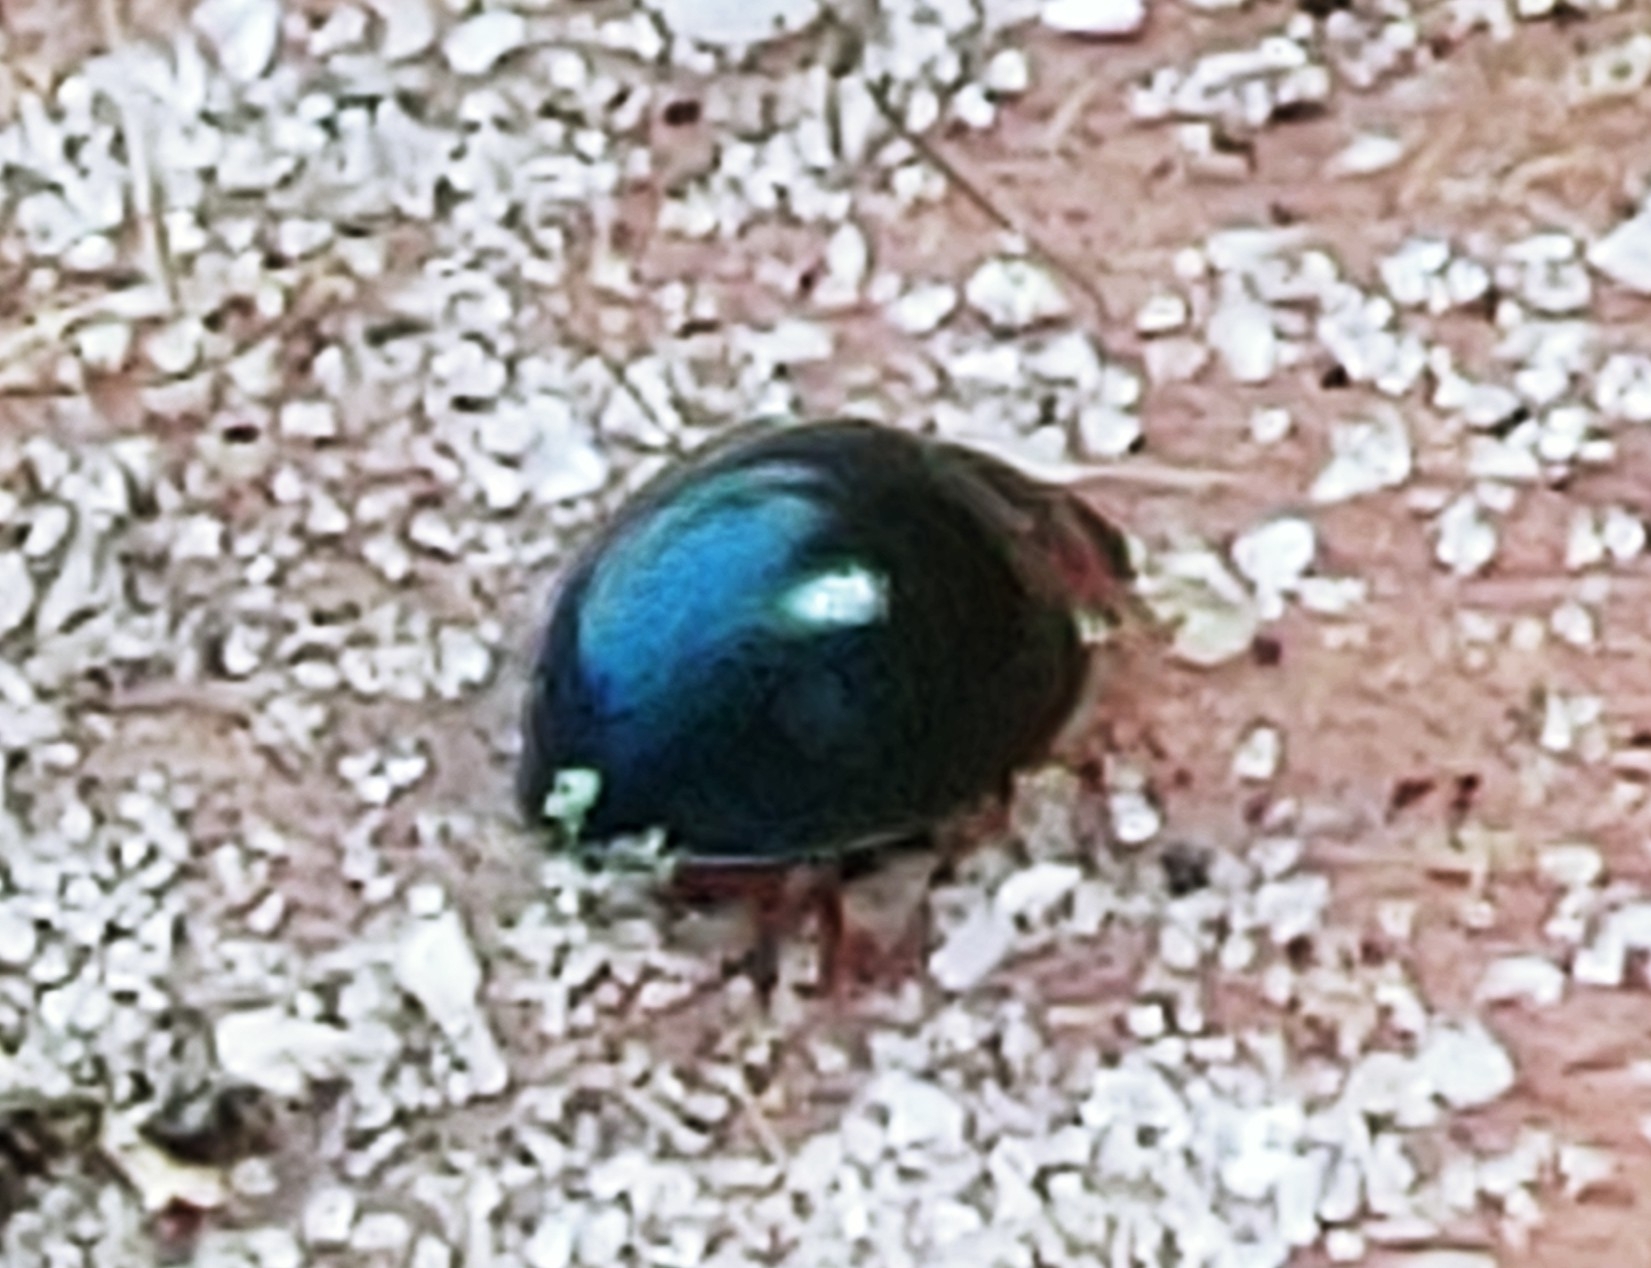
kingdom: Animalia
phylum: Arthropoda
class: Insecta
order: Coleoptera
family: Coccinellidae
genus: Curinus
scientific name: Curinus coeruleus
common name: Ladybird beetle
